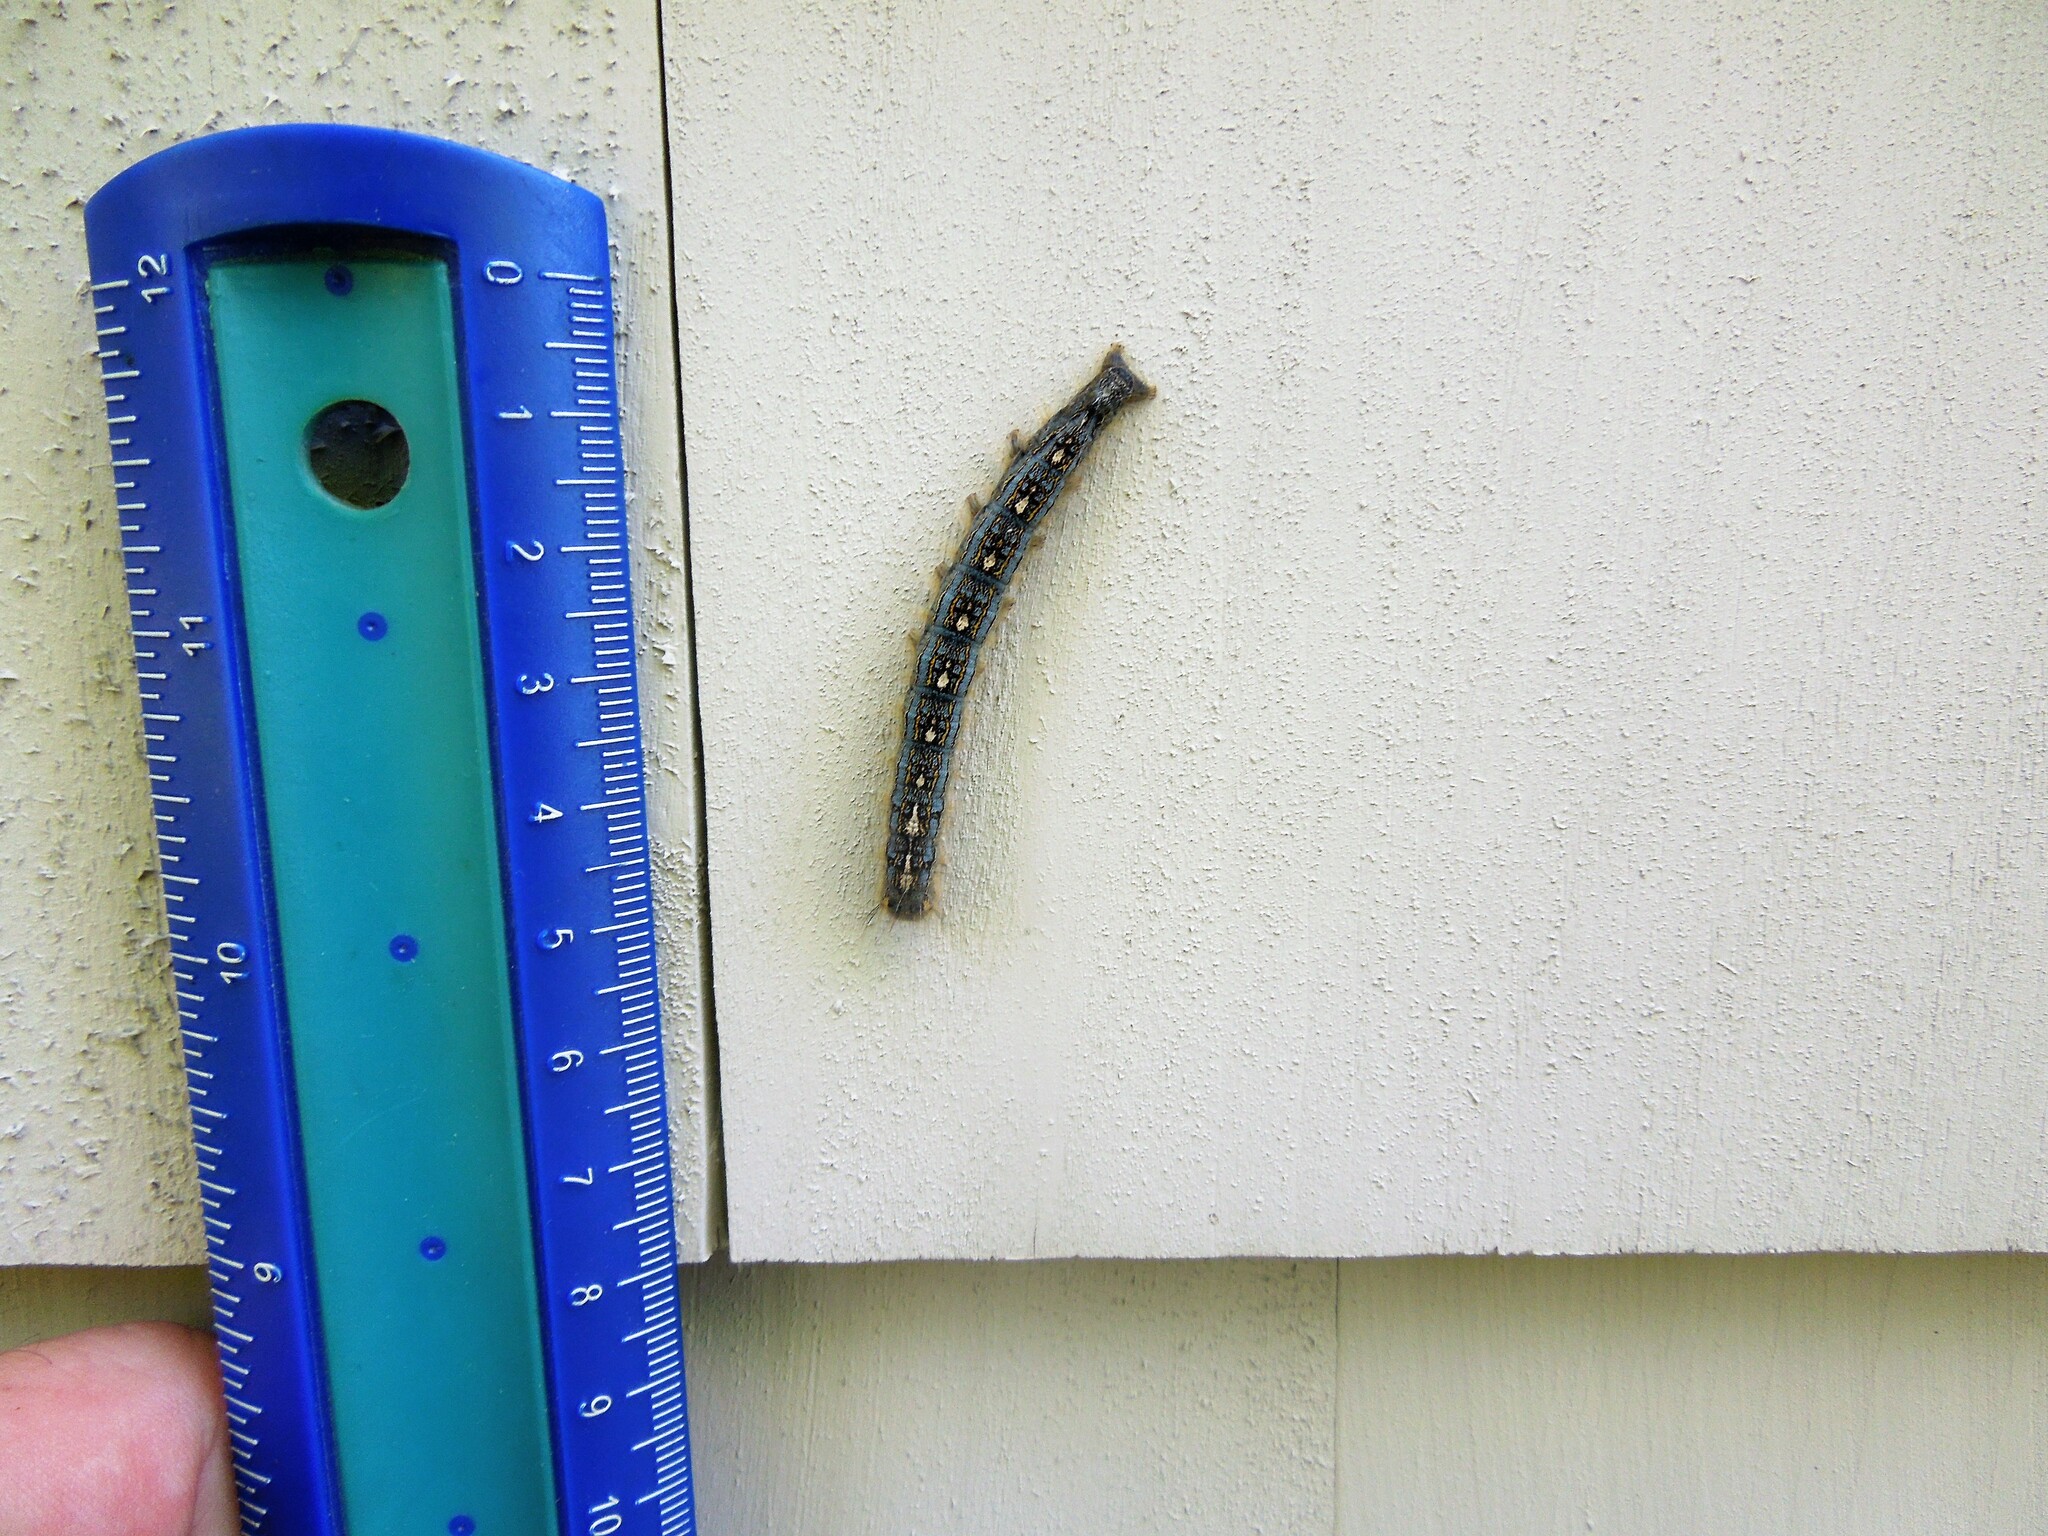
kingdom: Animalia
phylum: Arthropoda
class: Insecta
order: Lepidoptera
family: Lasiocampidae
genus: Malacosoma
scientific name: Malacosoma disstria
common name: Forest tent caterpillar
